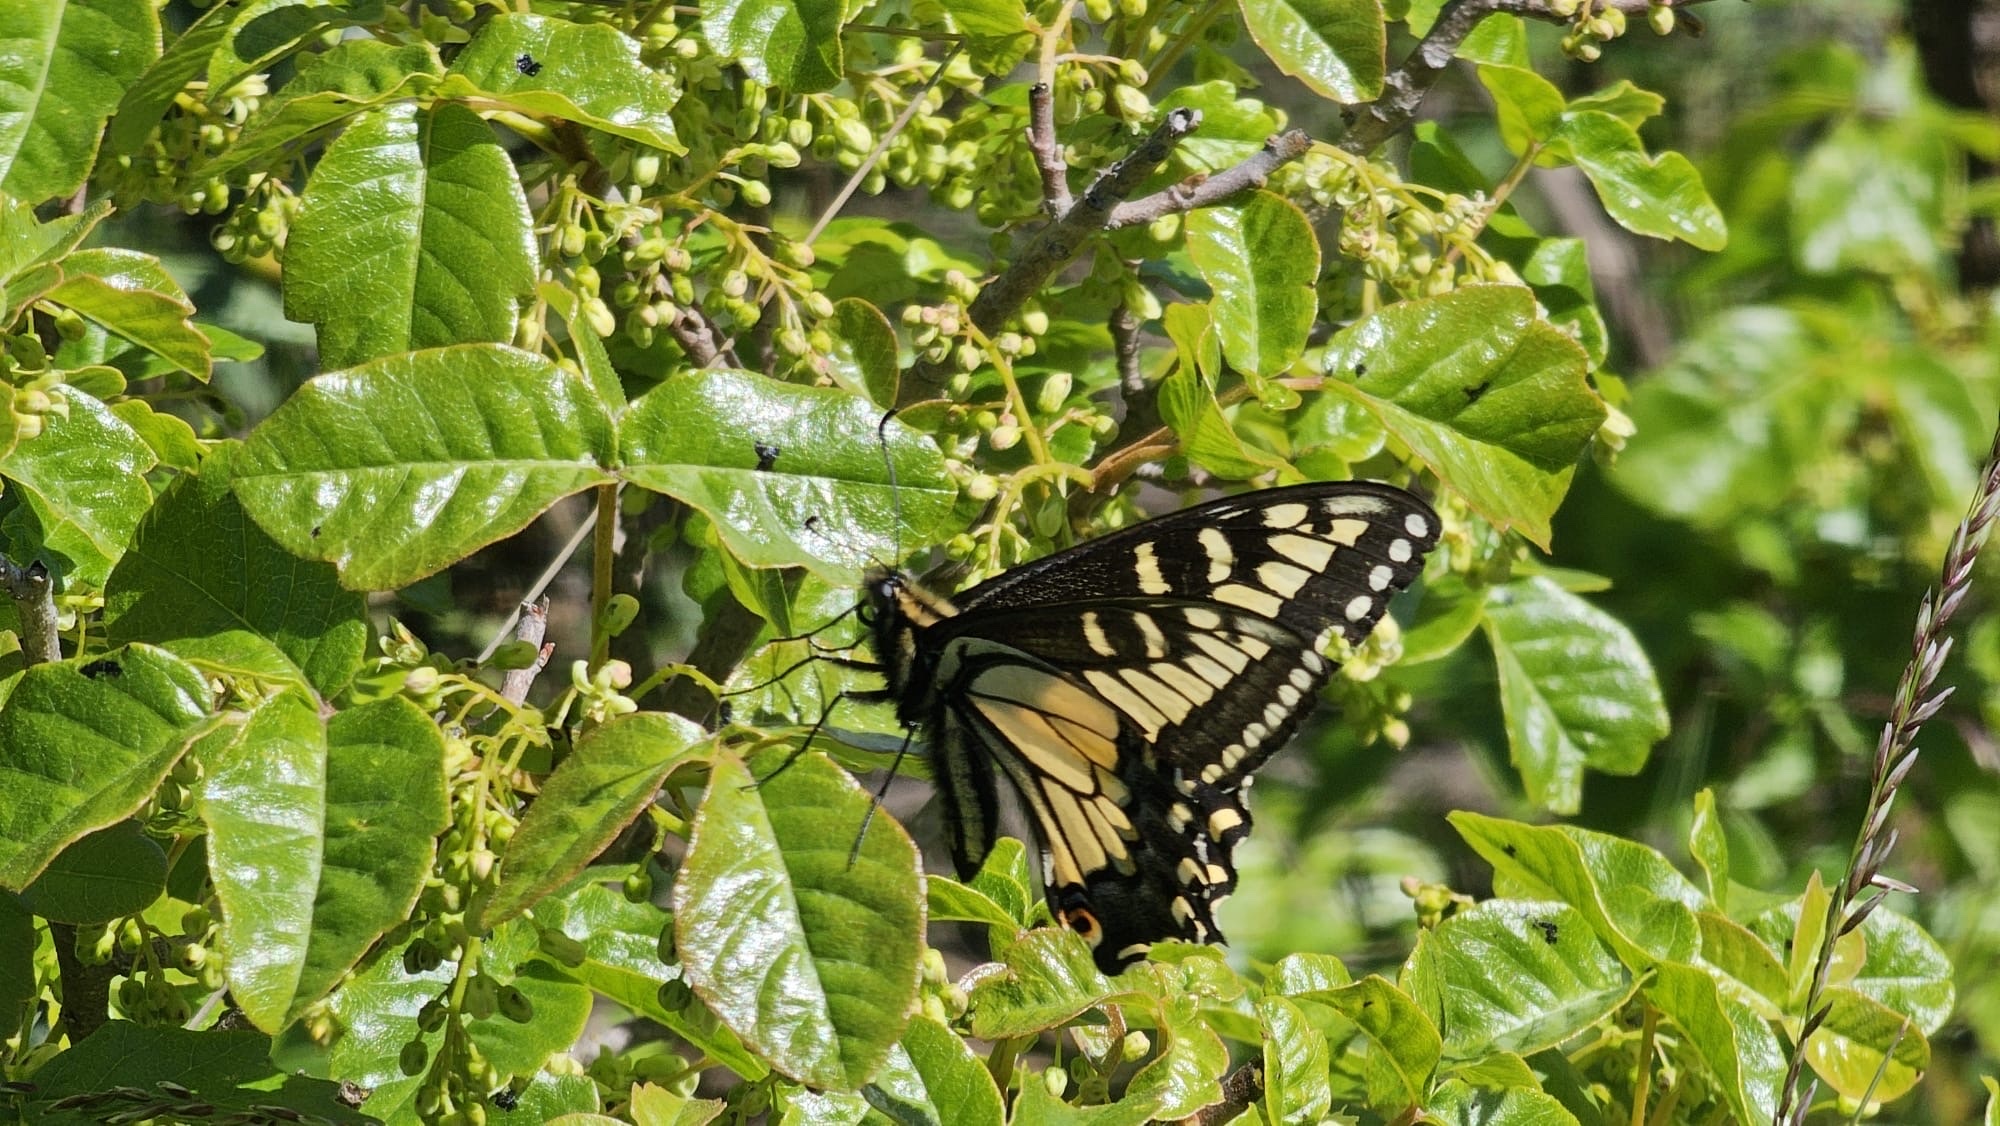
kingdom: Animalia
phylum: Arthropoda
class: Insecta
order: Lepidoptera
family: Papilionidae
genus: Papilio
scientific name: Papilio zelicaon
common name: Anise swallowtail
